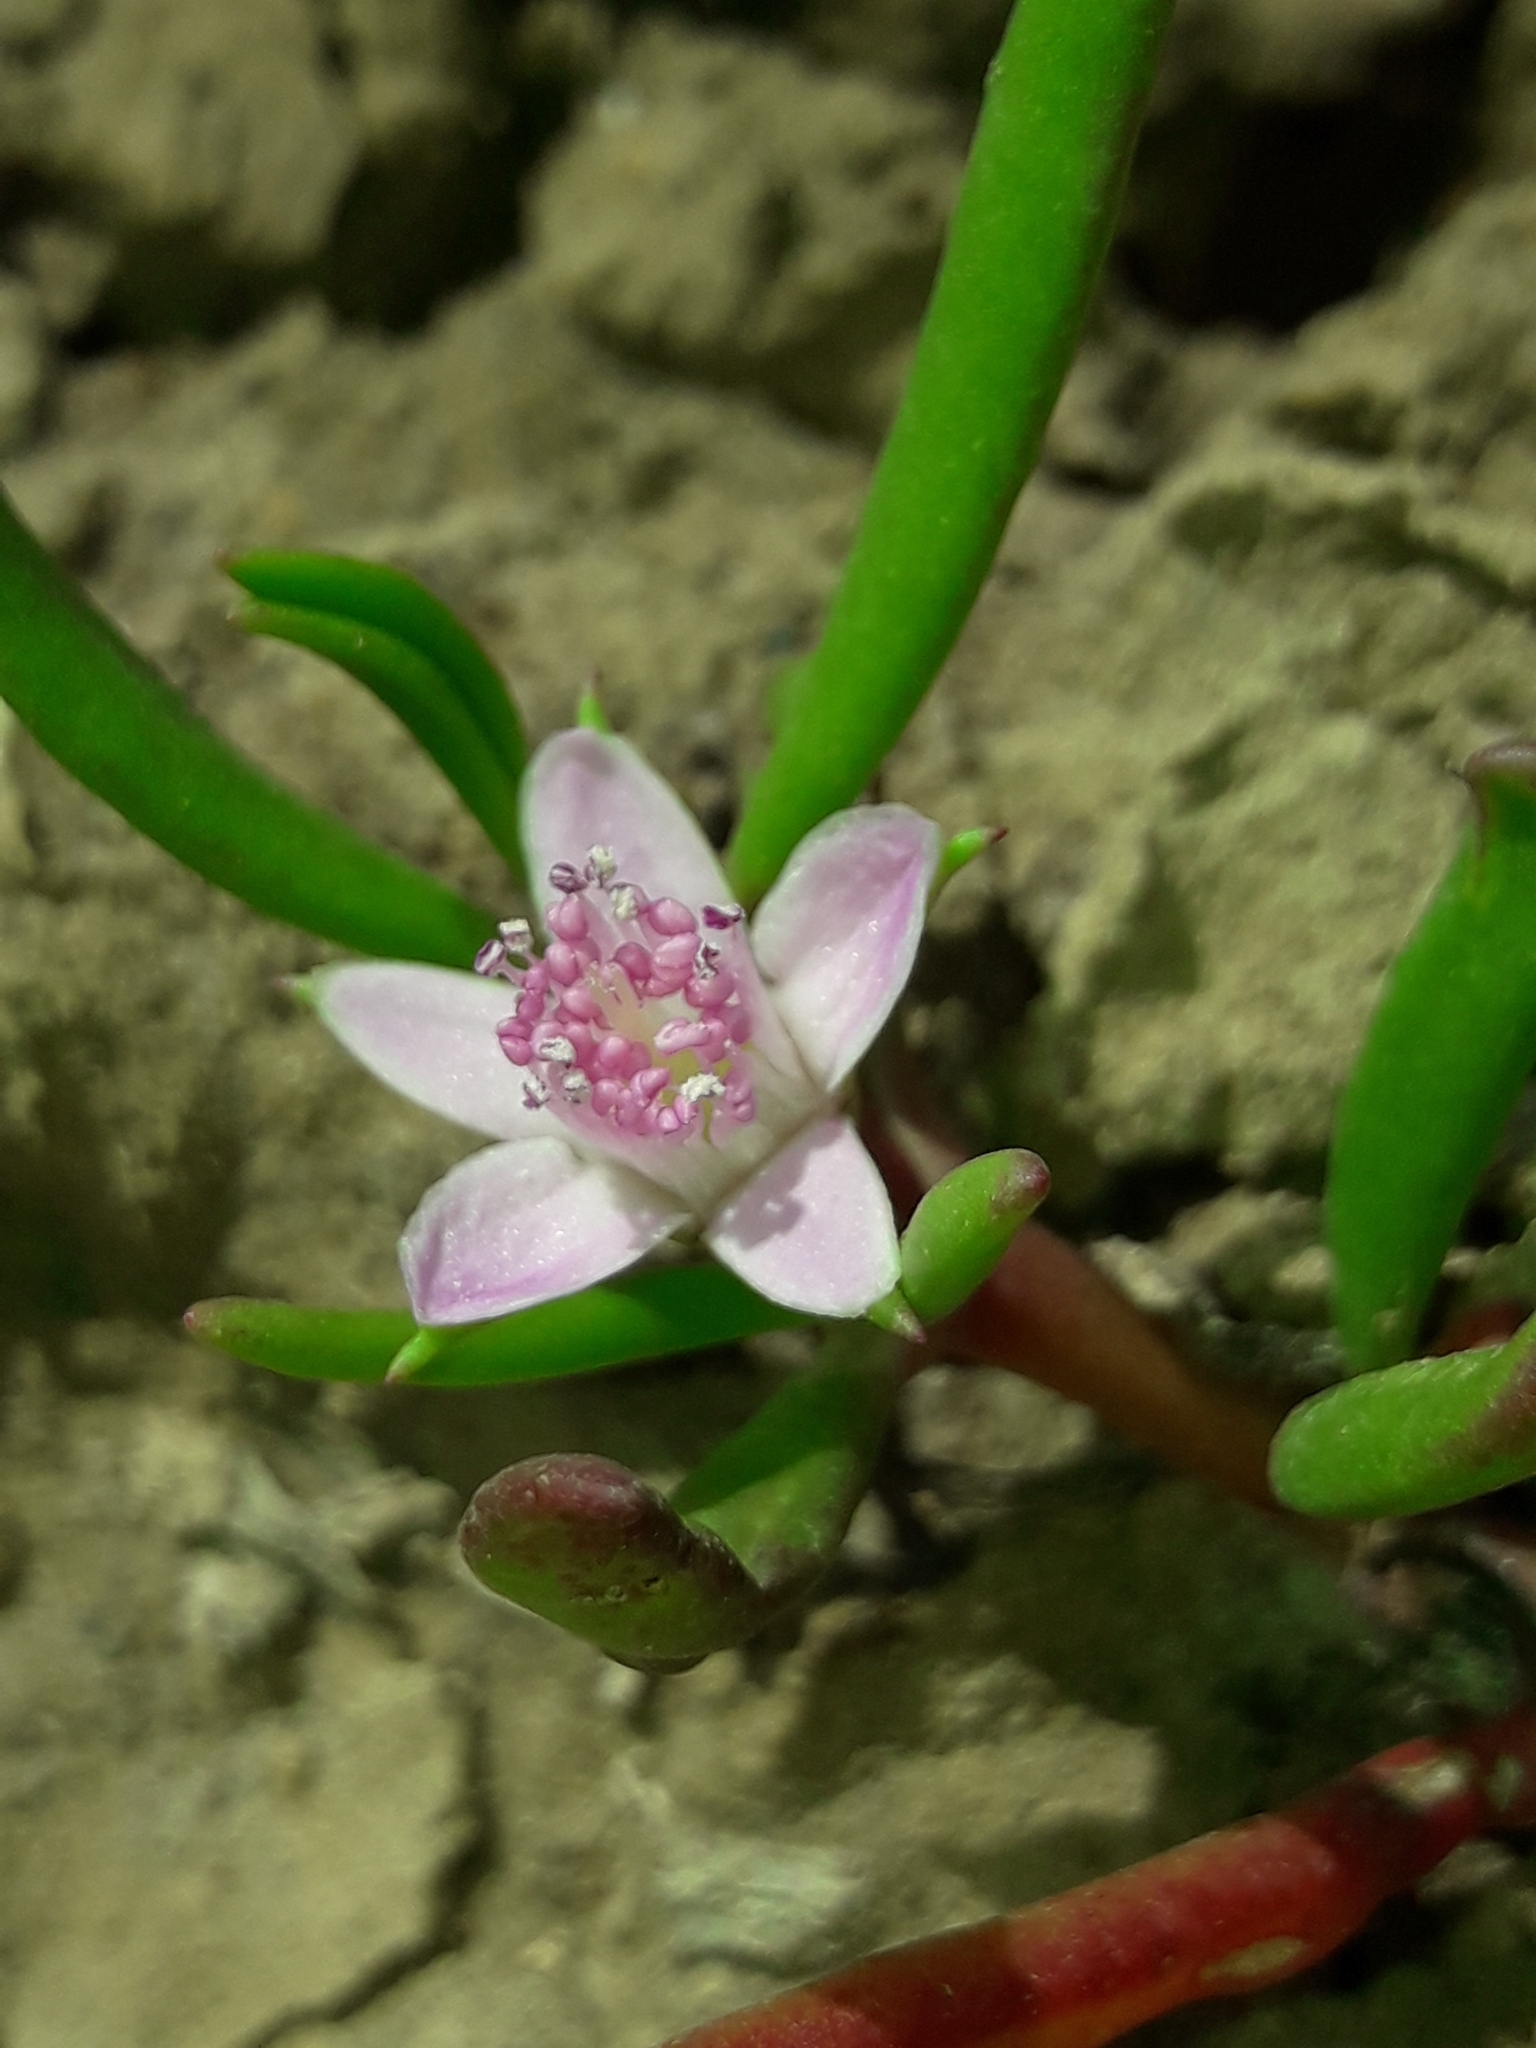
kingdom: Plantae
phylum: Tracheophyta
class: Magnoliopsida
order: Caryophyllales
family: Aizoaceae
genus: Sesuvium
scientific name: Sesuvium portulacastrum
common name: Sea-purslane
